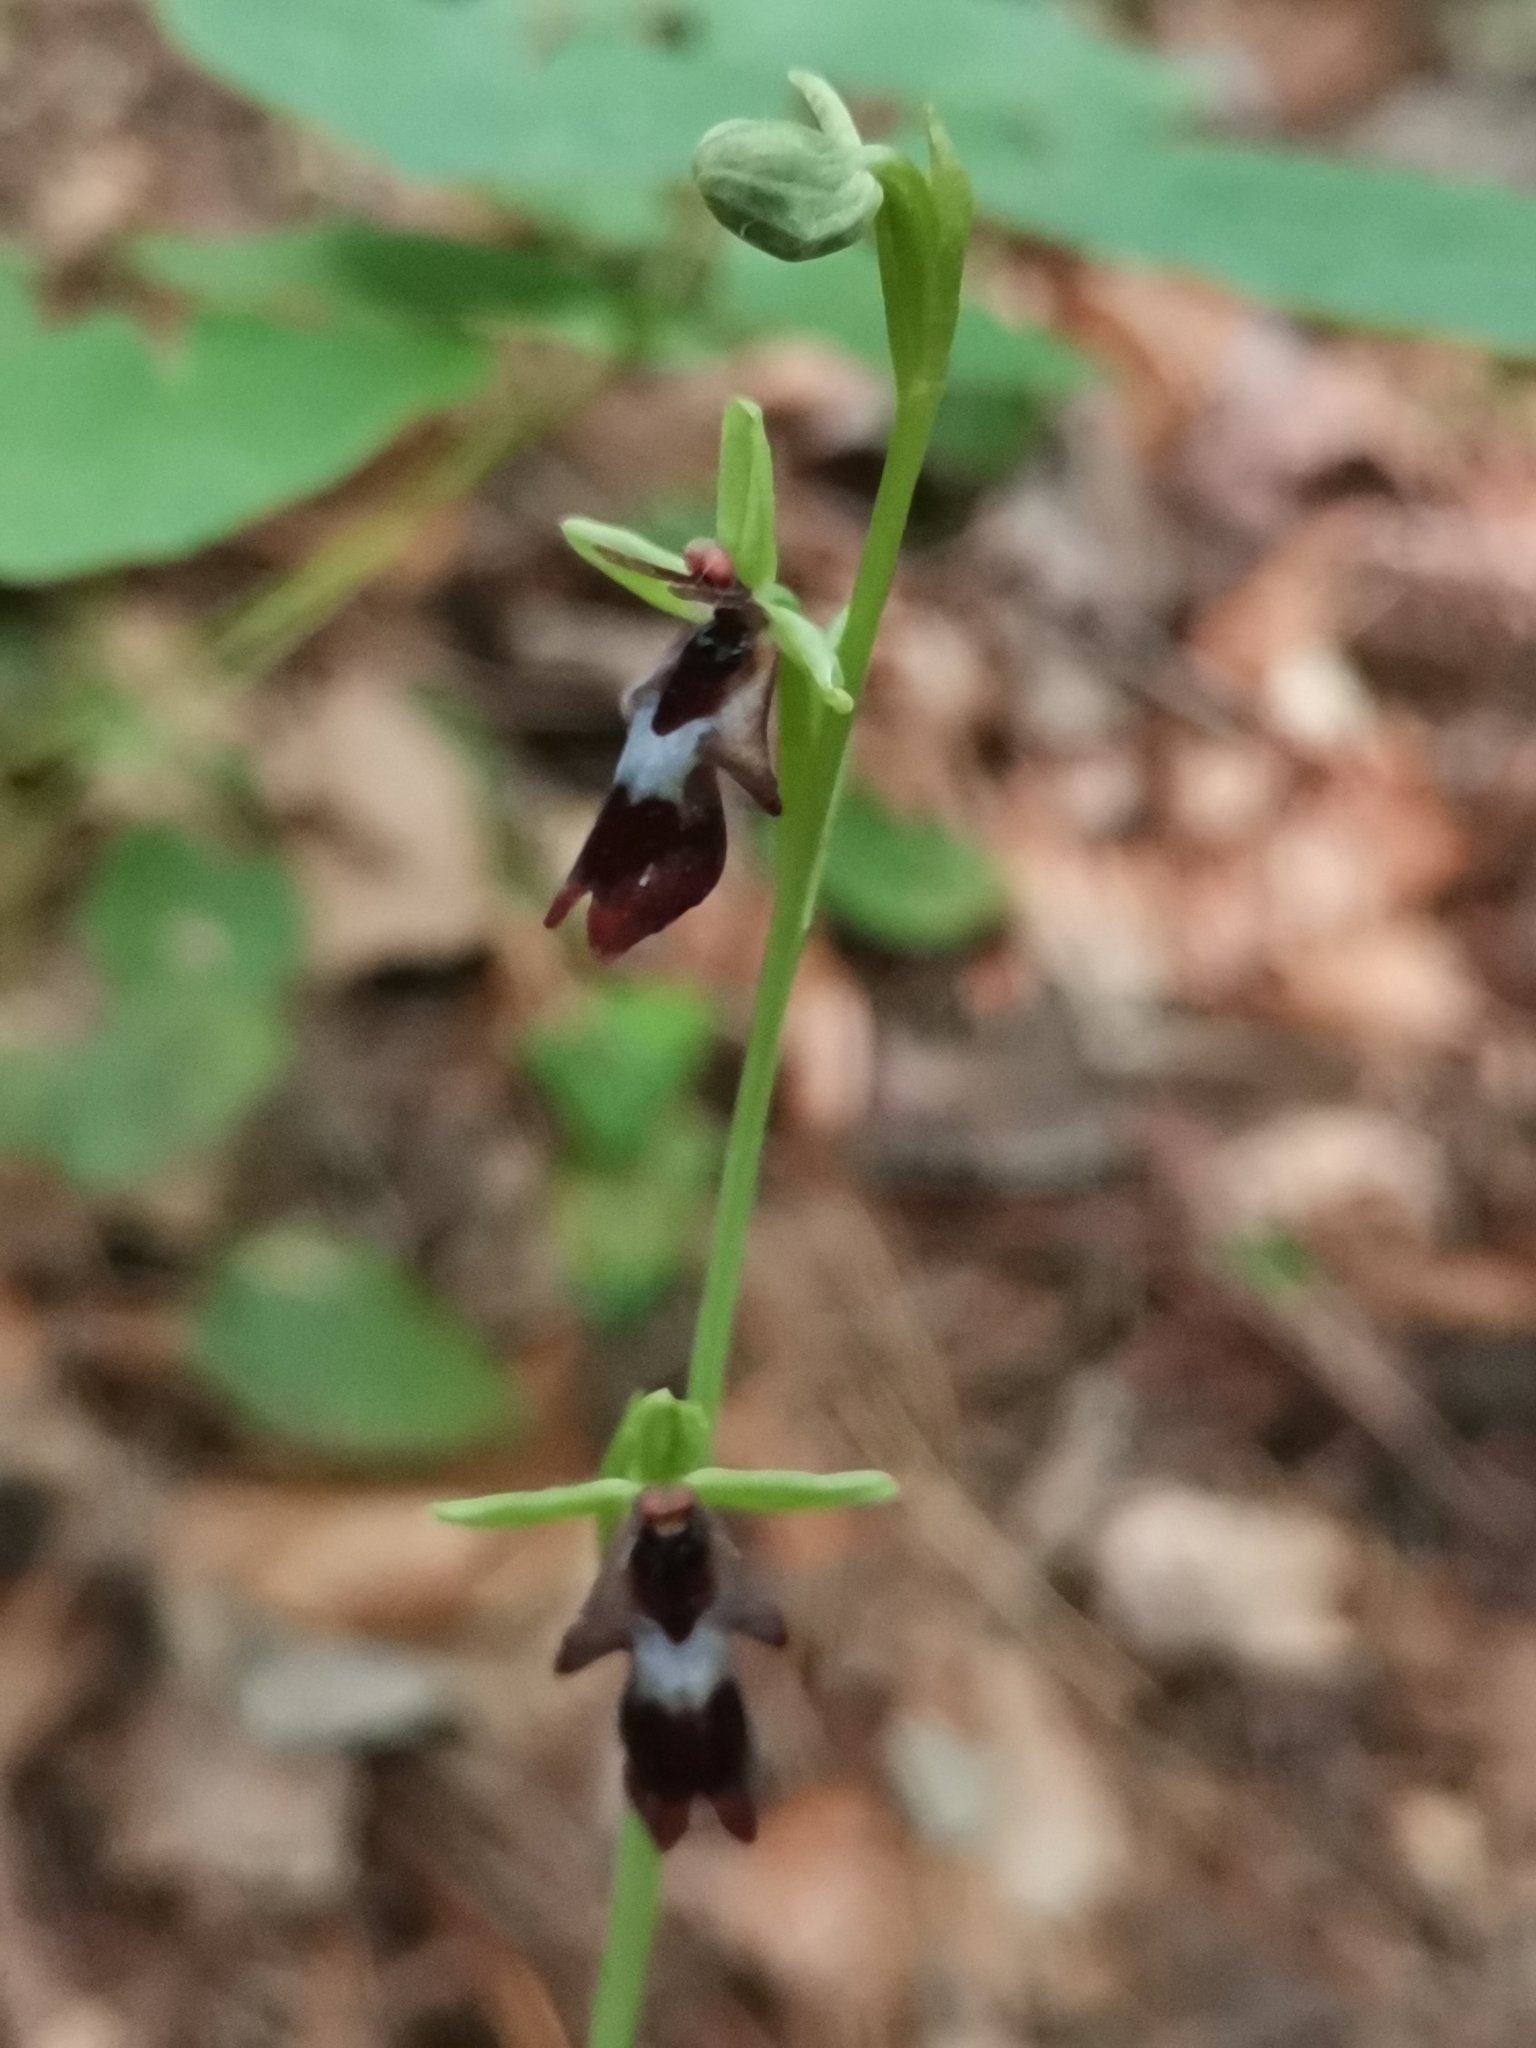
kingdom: Plantae
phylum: Tracheophyta
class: Liliopsida
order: Asparagales
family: Orchidaceae
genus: Ophrys
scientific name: Ophrys insectifera
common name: Fly orchid
